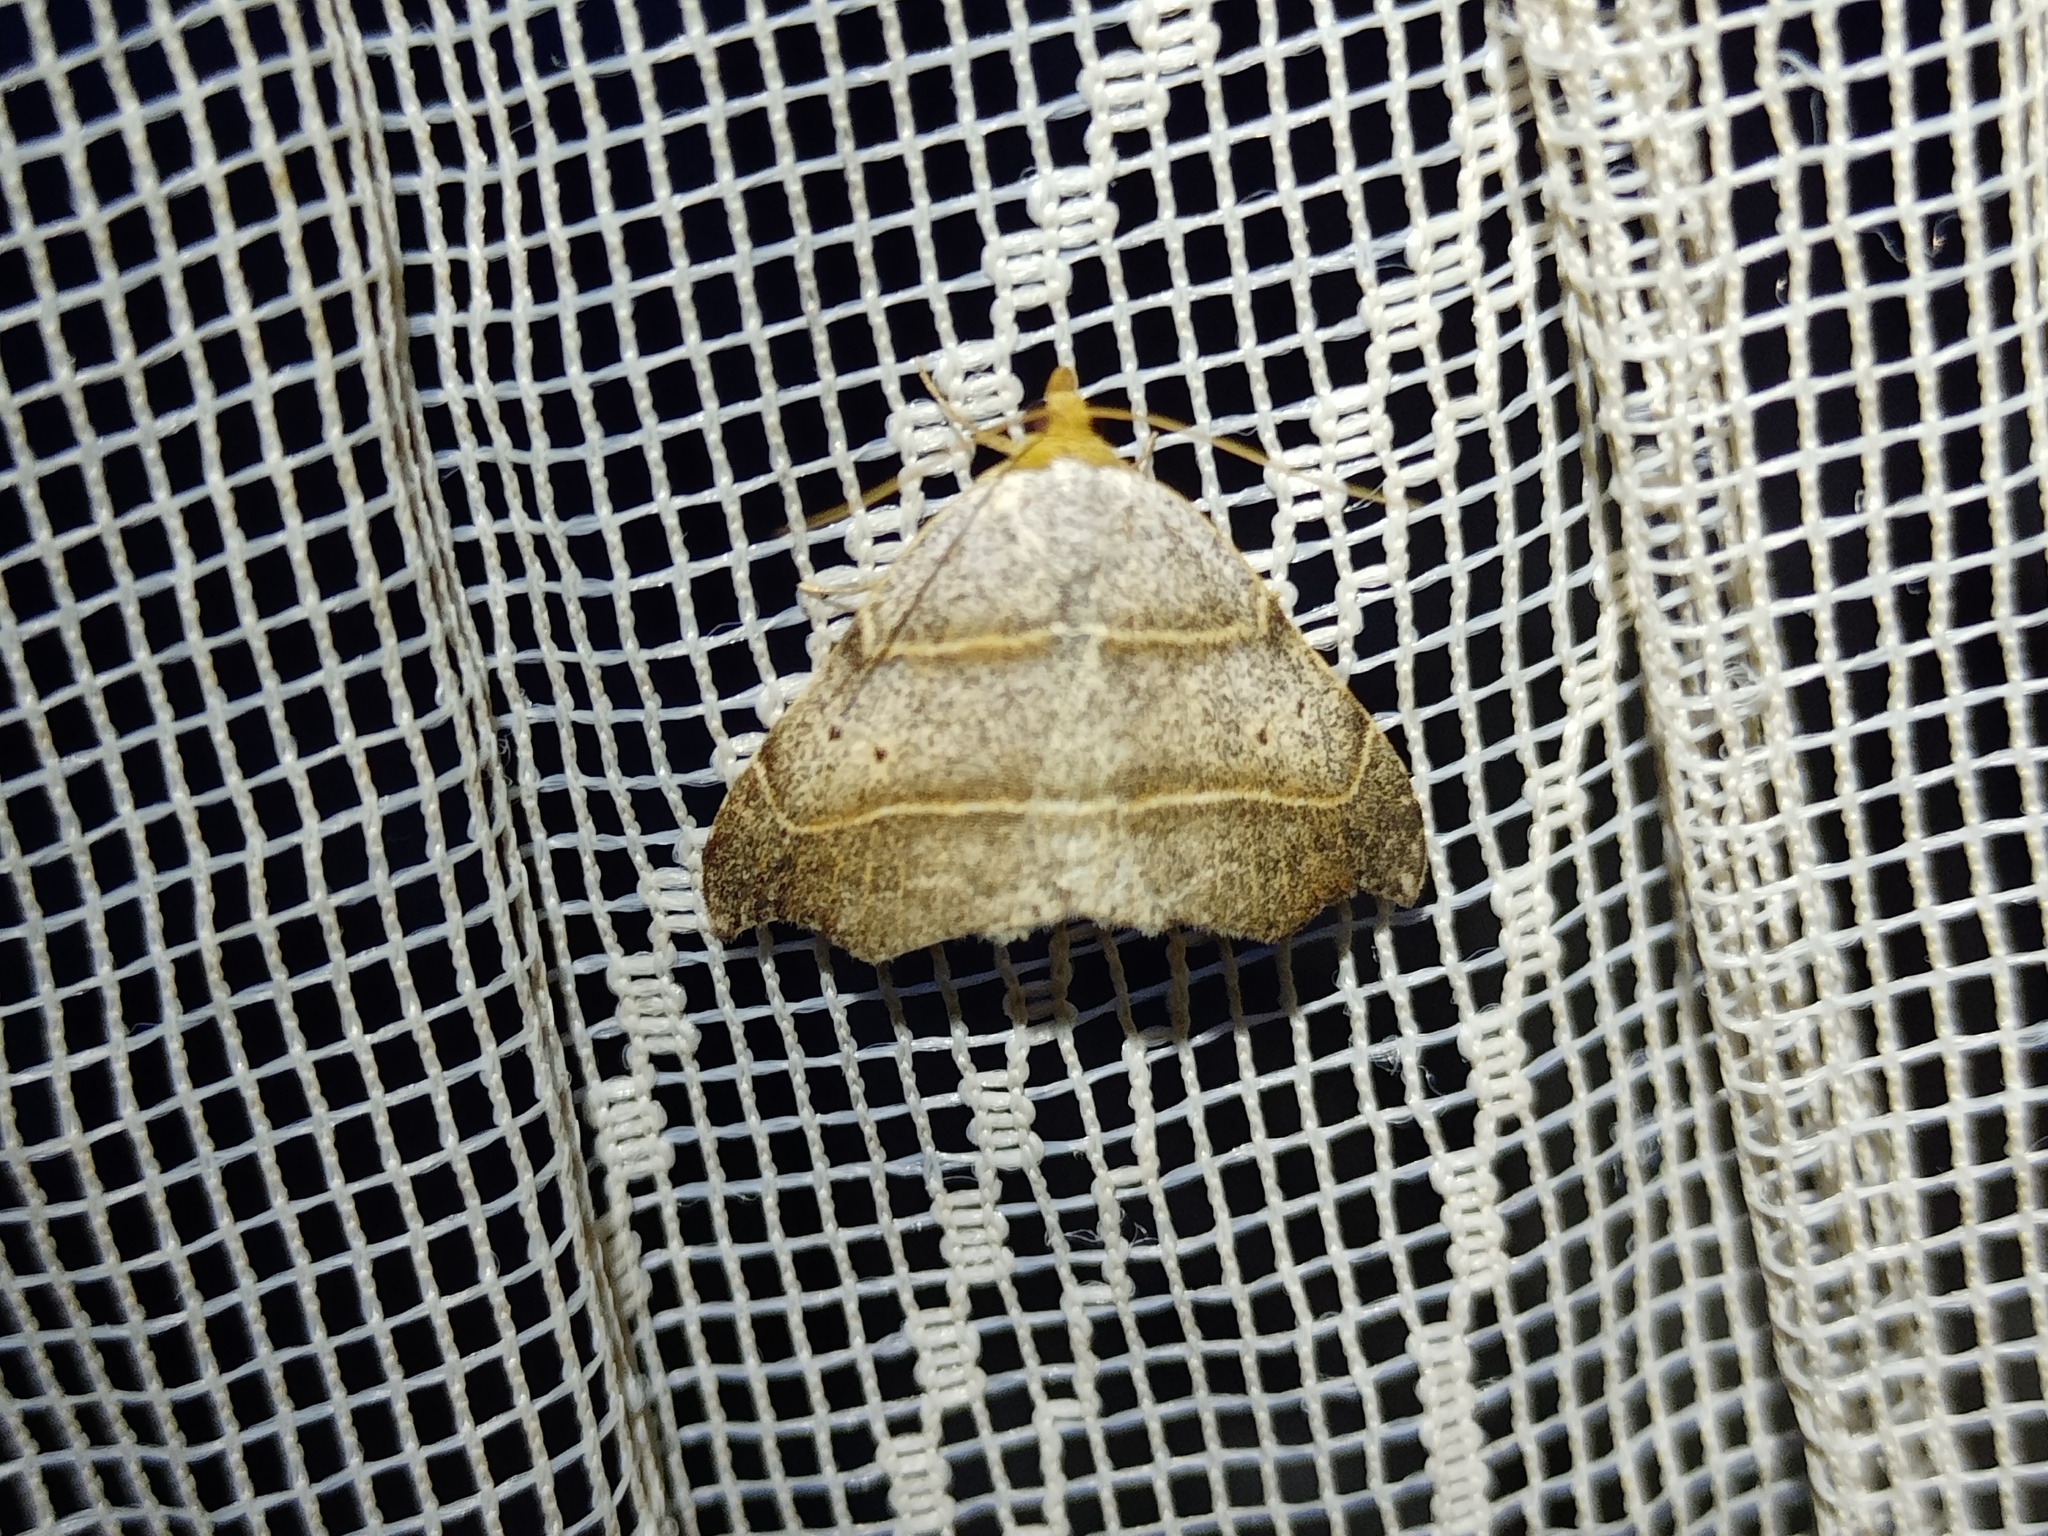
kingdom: Animalia
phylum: Arthropoda
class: Insecta
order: Lepidoptera
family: Erebidae
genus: Laspeyria
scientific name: Laspeyria flexula
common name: Beautiful hook-tip
